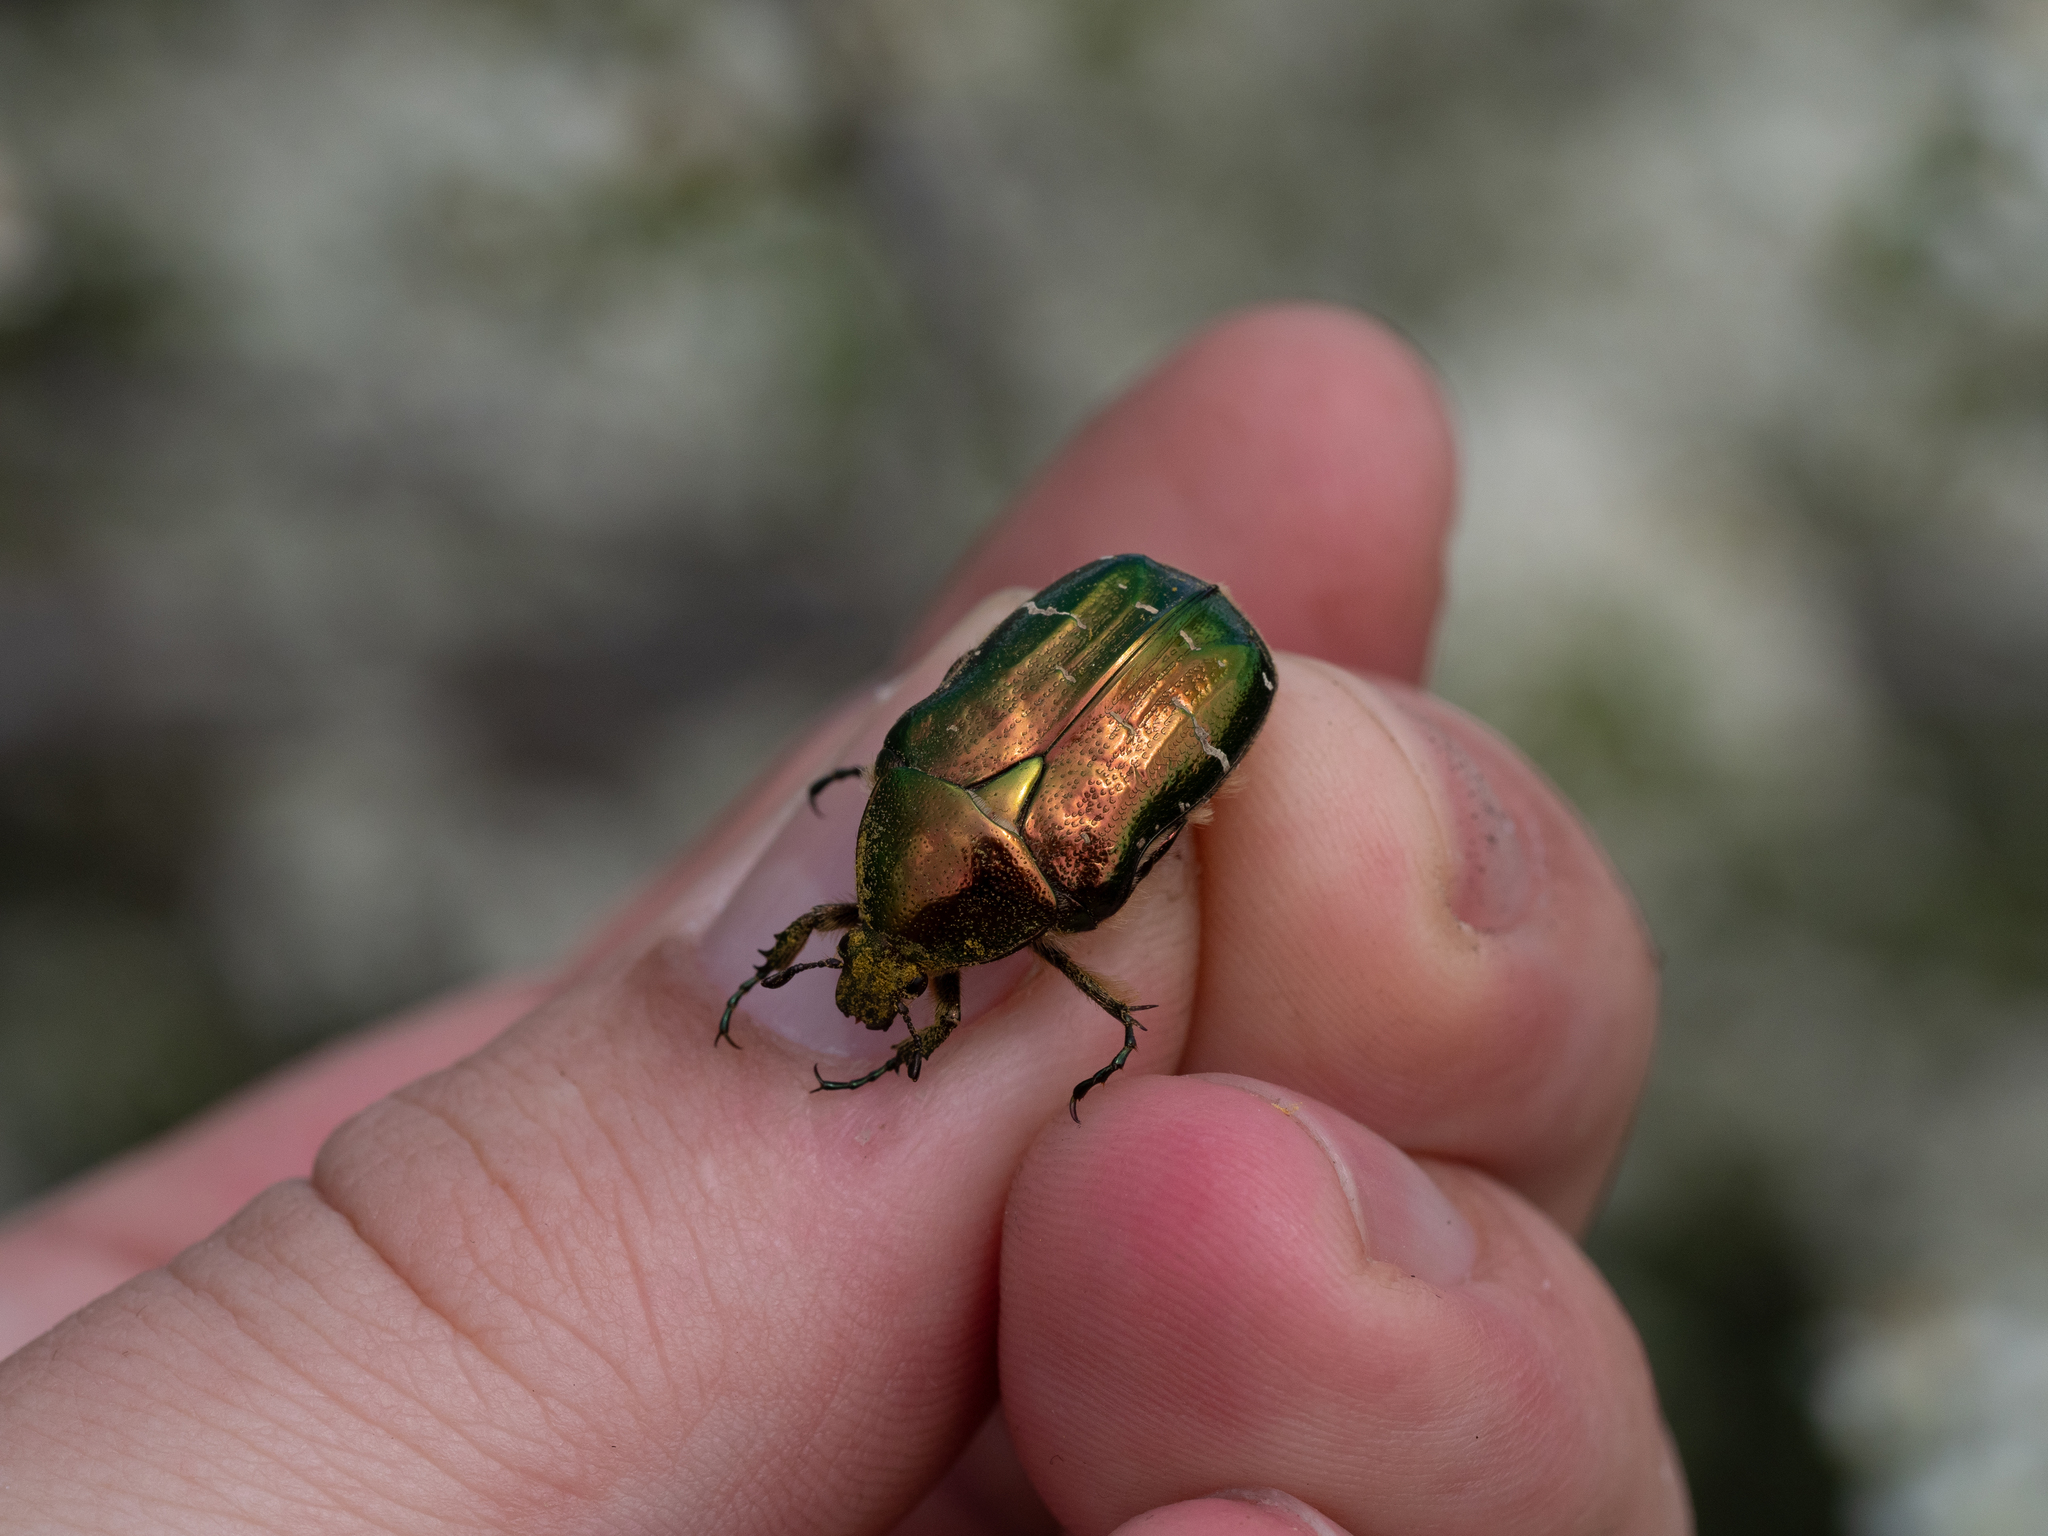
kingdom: Animalia
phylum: Arthropoda
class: Insecta
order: Coleoptera
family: Scarabaeidae
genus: Cetonia
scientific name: Cetonia aurata
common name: Rose chafer
